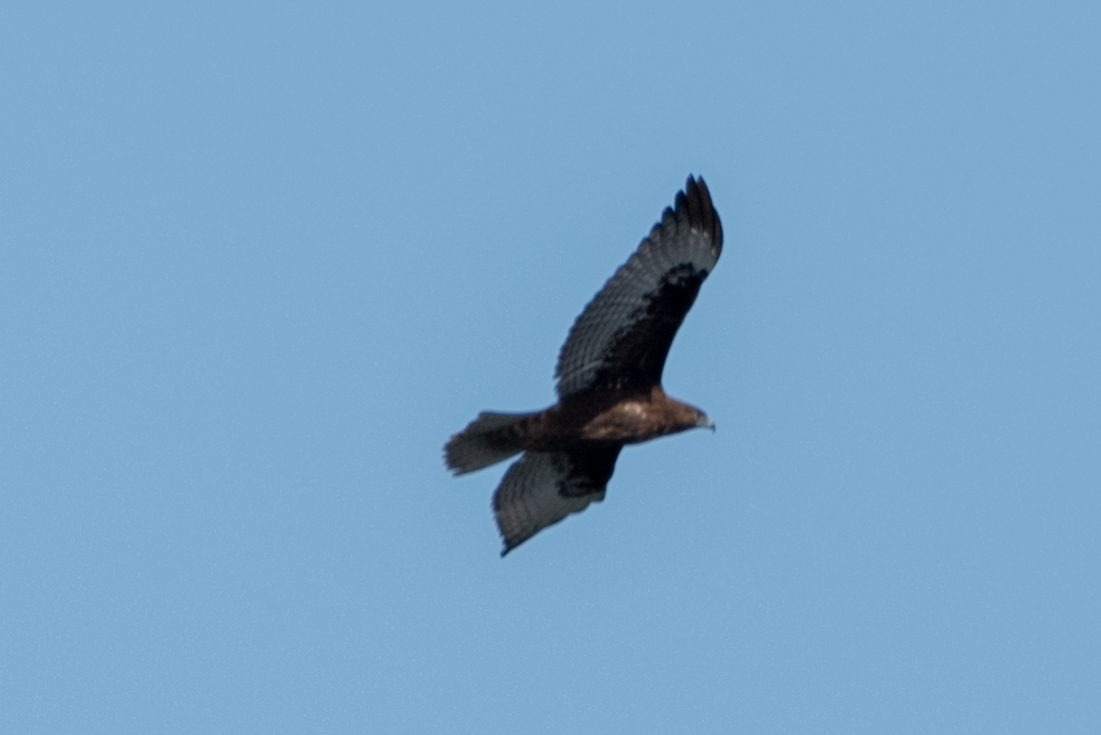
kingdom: Animalia
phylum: Chordata
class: Aves
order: Accipitriformes
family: Accipitridae
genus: Buteo
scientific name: Buteo jamaicensis
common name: Red-tailed hawk
